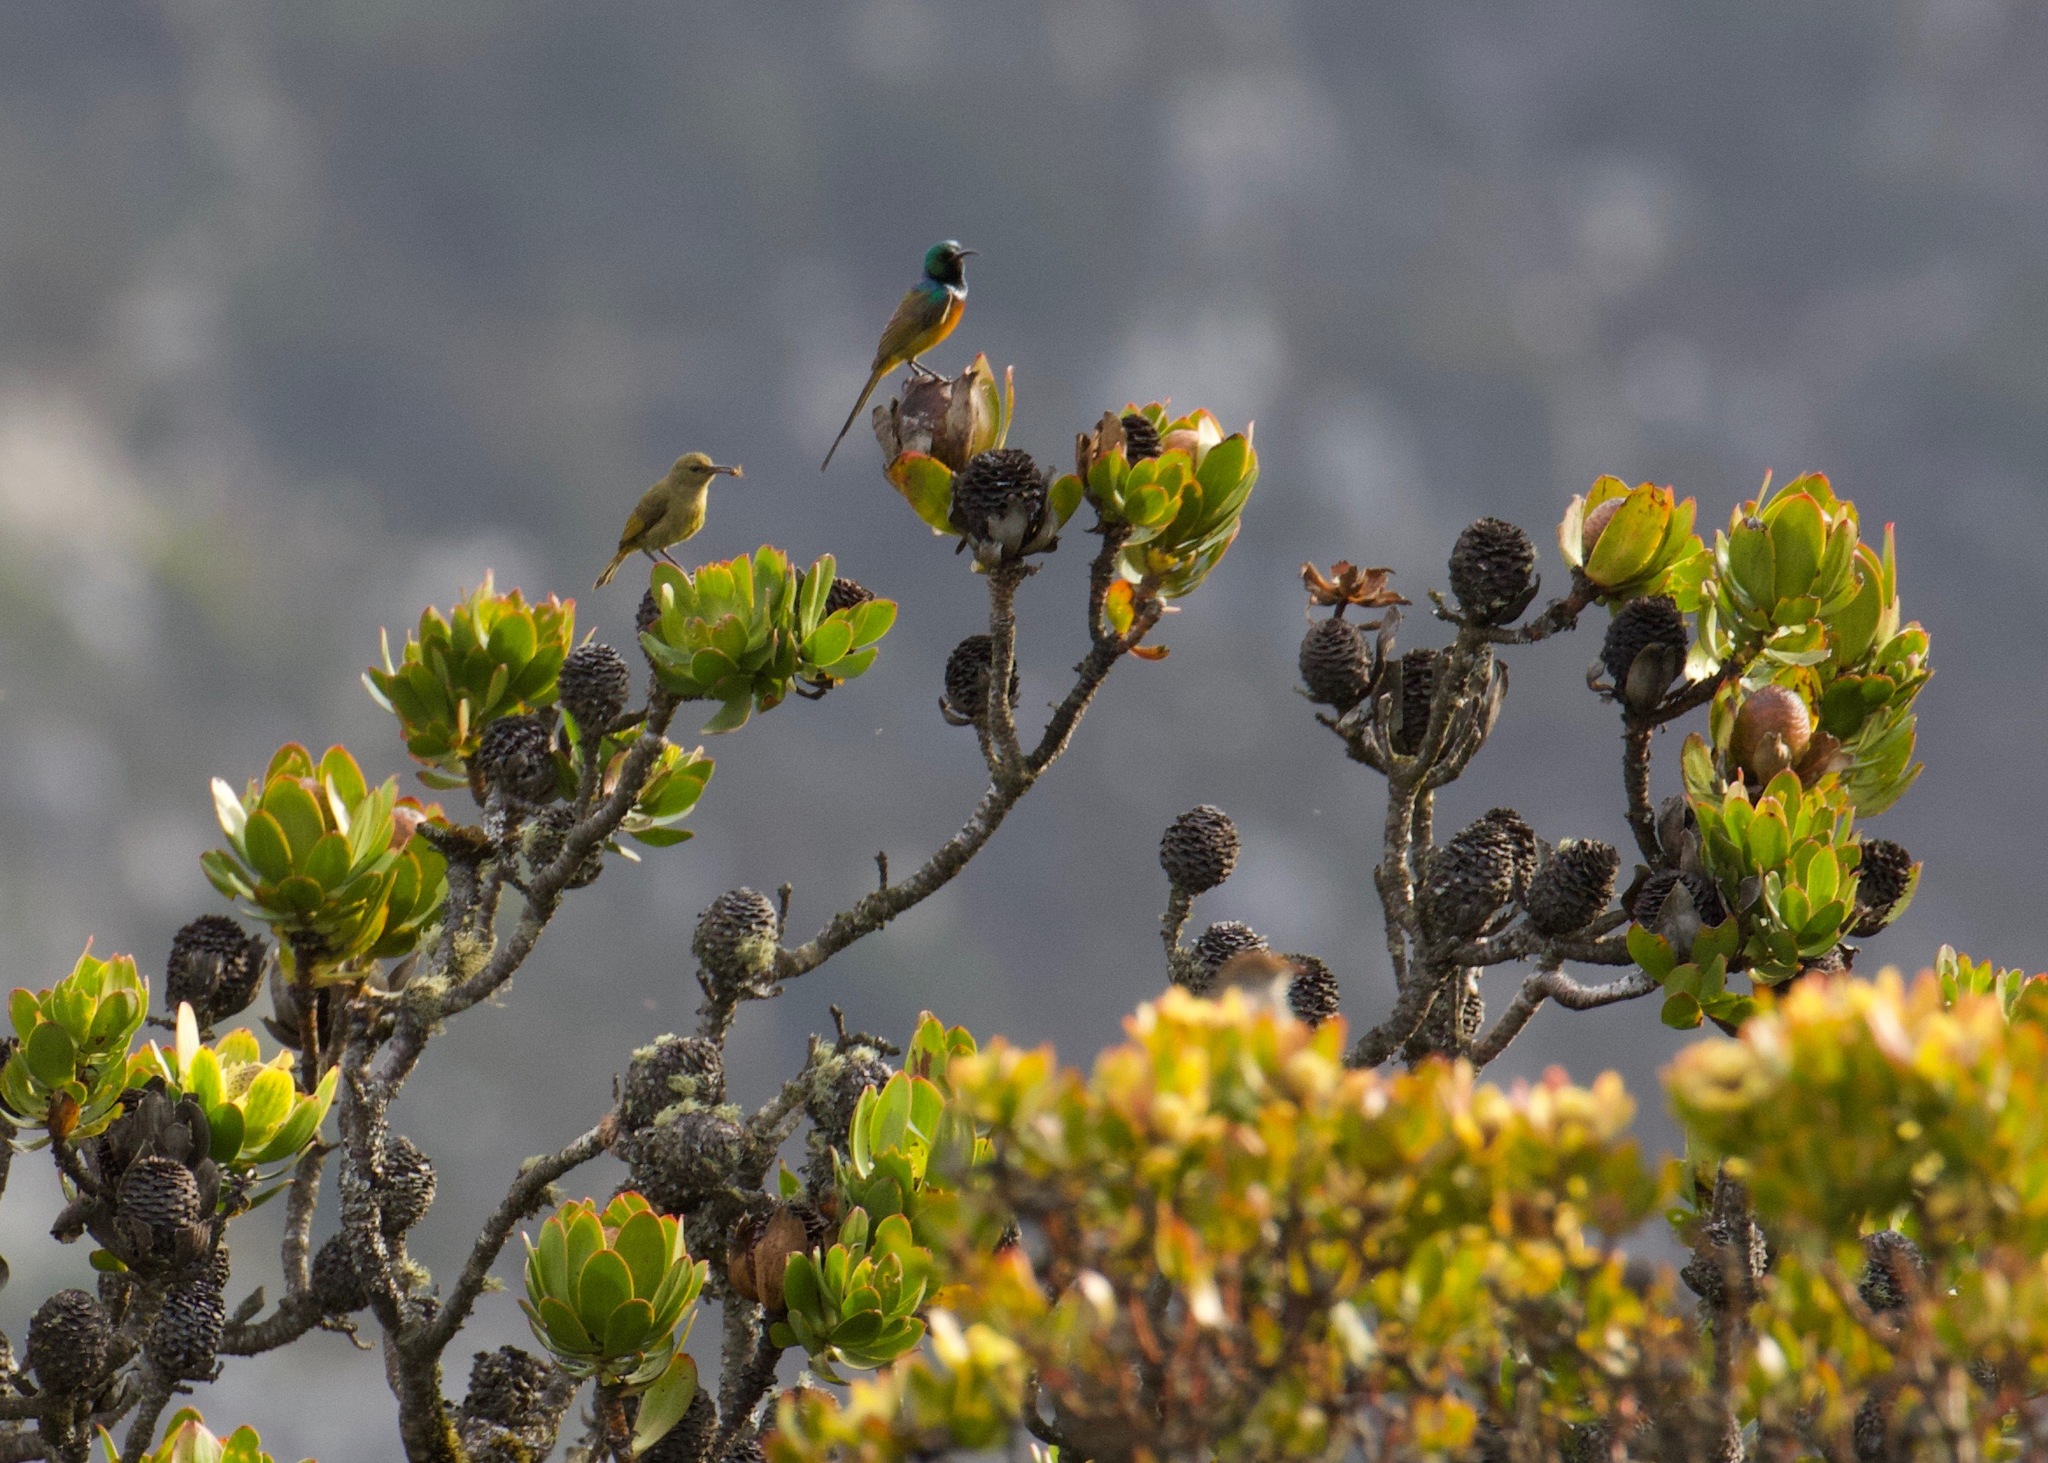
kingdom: Animalia
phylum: Chordata
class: Aves
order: Passeriformes
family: Nectariniidae
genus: Anthobaphes
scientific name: Anthobaphes violacea
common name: Orange-breasted sunbird
